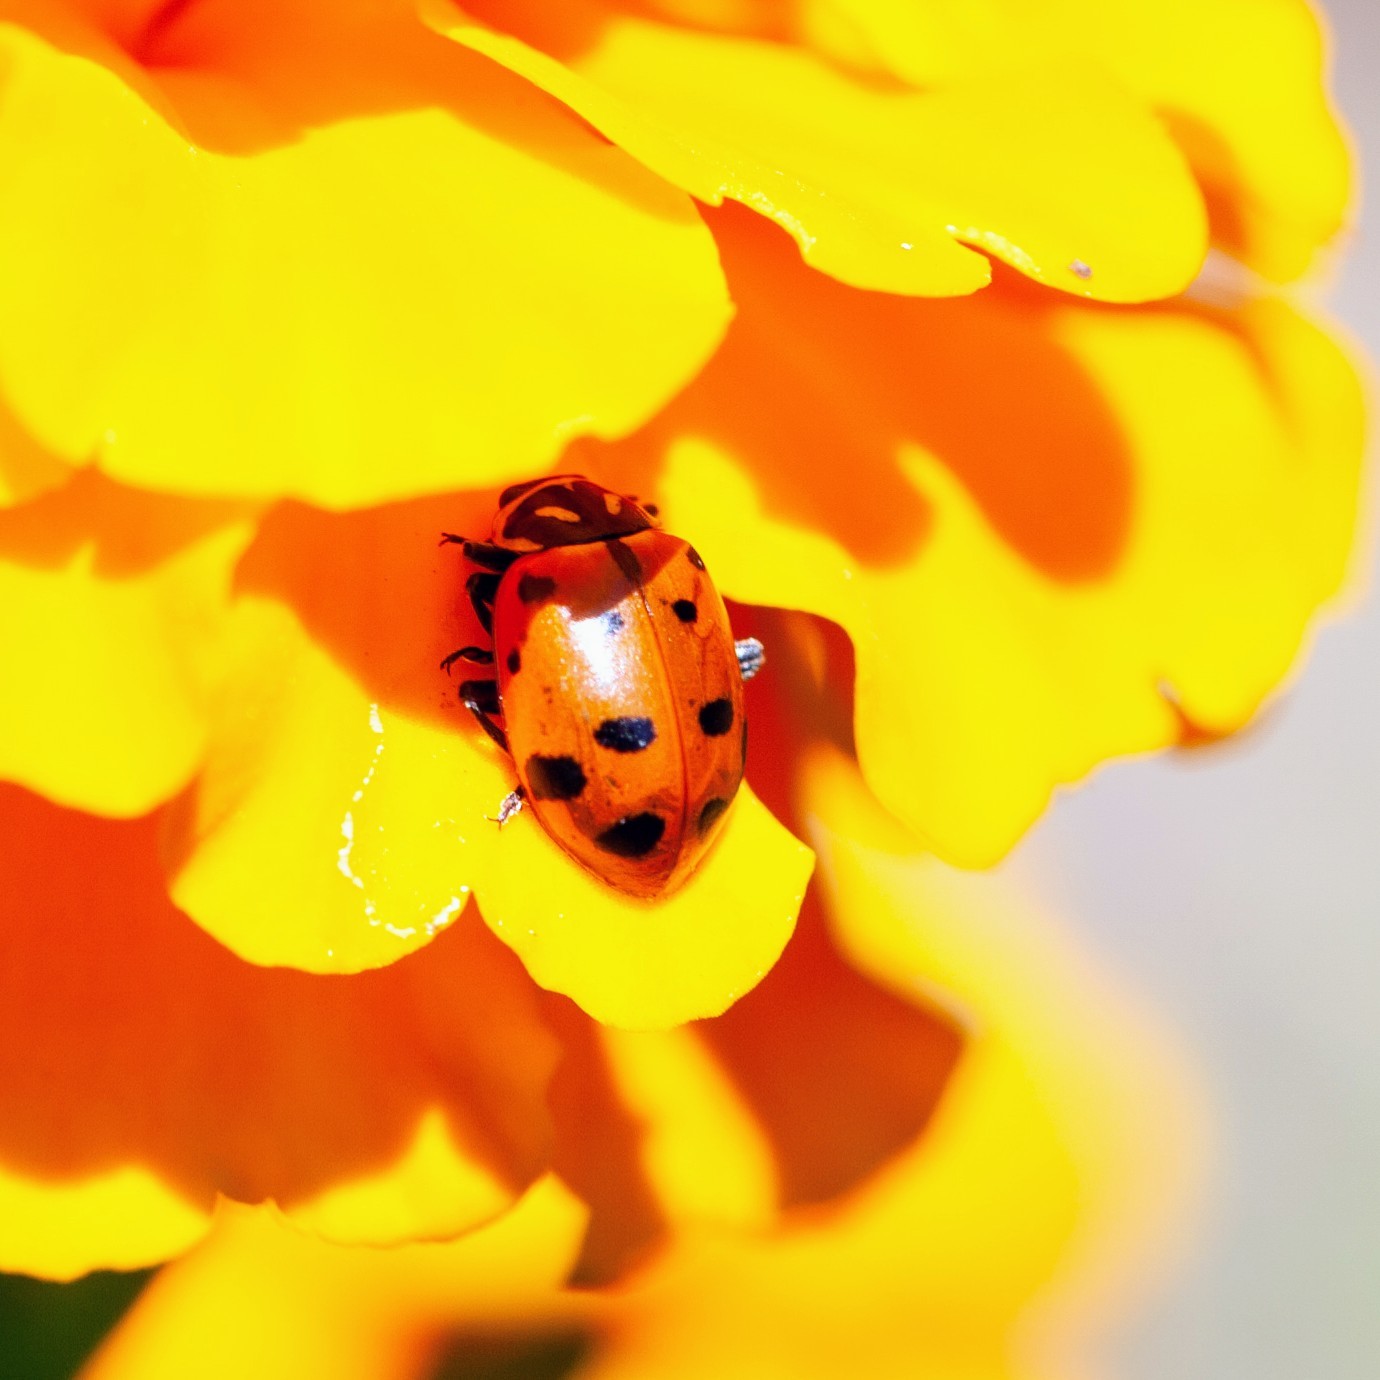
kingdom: Animalia
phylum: Arthropoda
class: Insecta
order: Coleoptera
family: Coccinellidae
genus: Hippodamia
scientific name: Hippodamia convergens
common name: Convergent lady beetle
